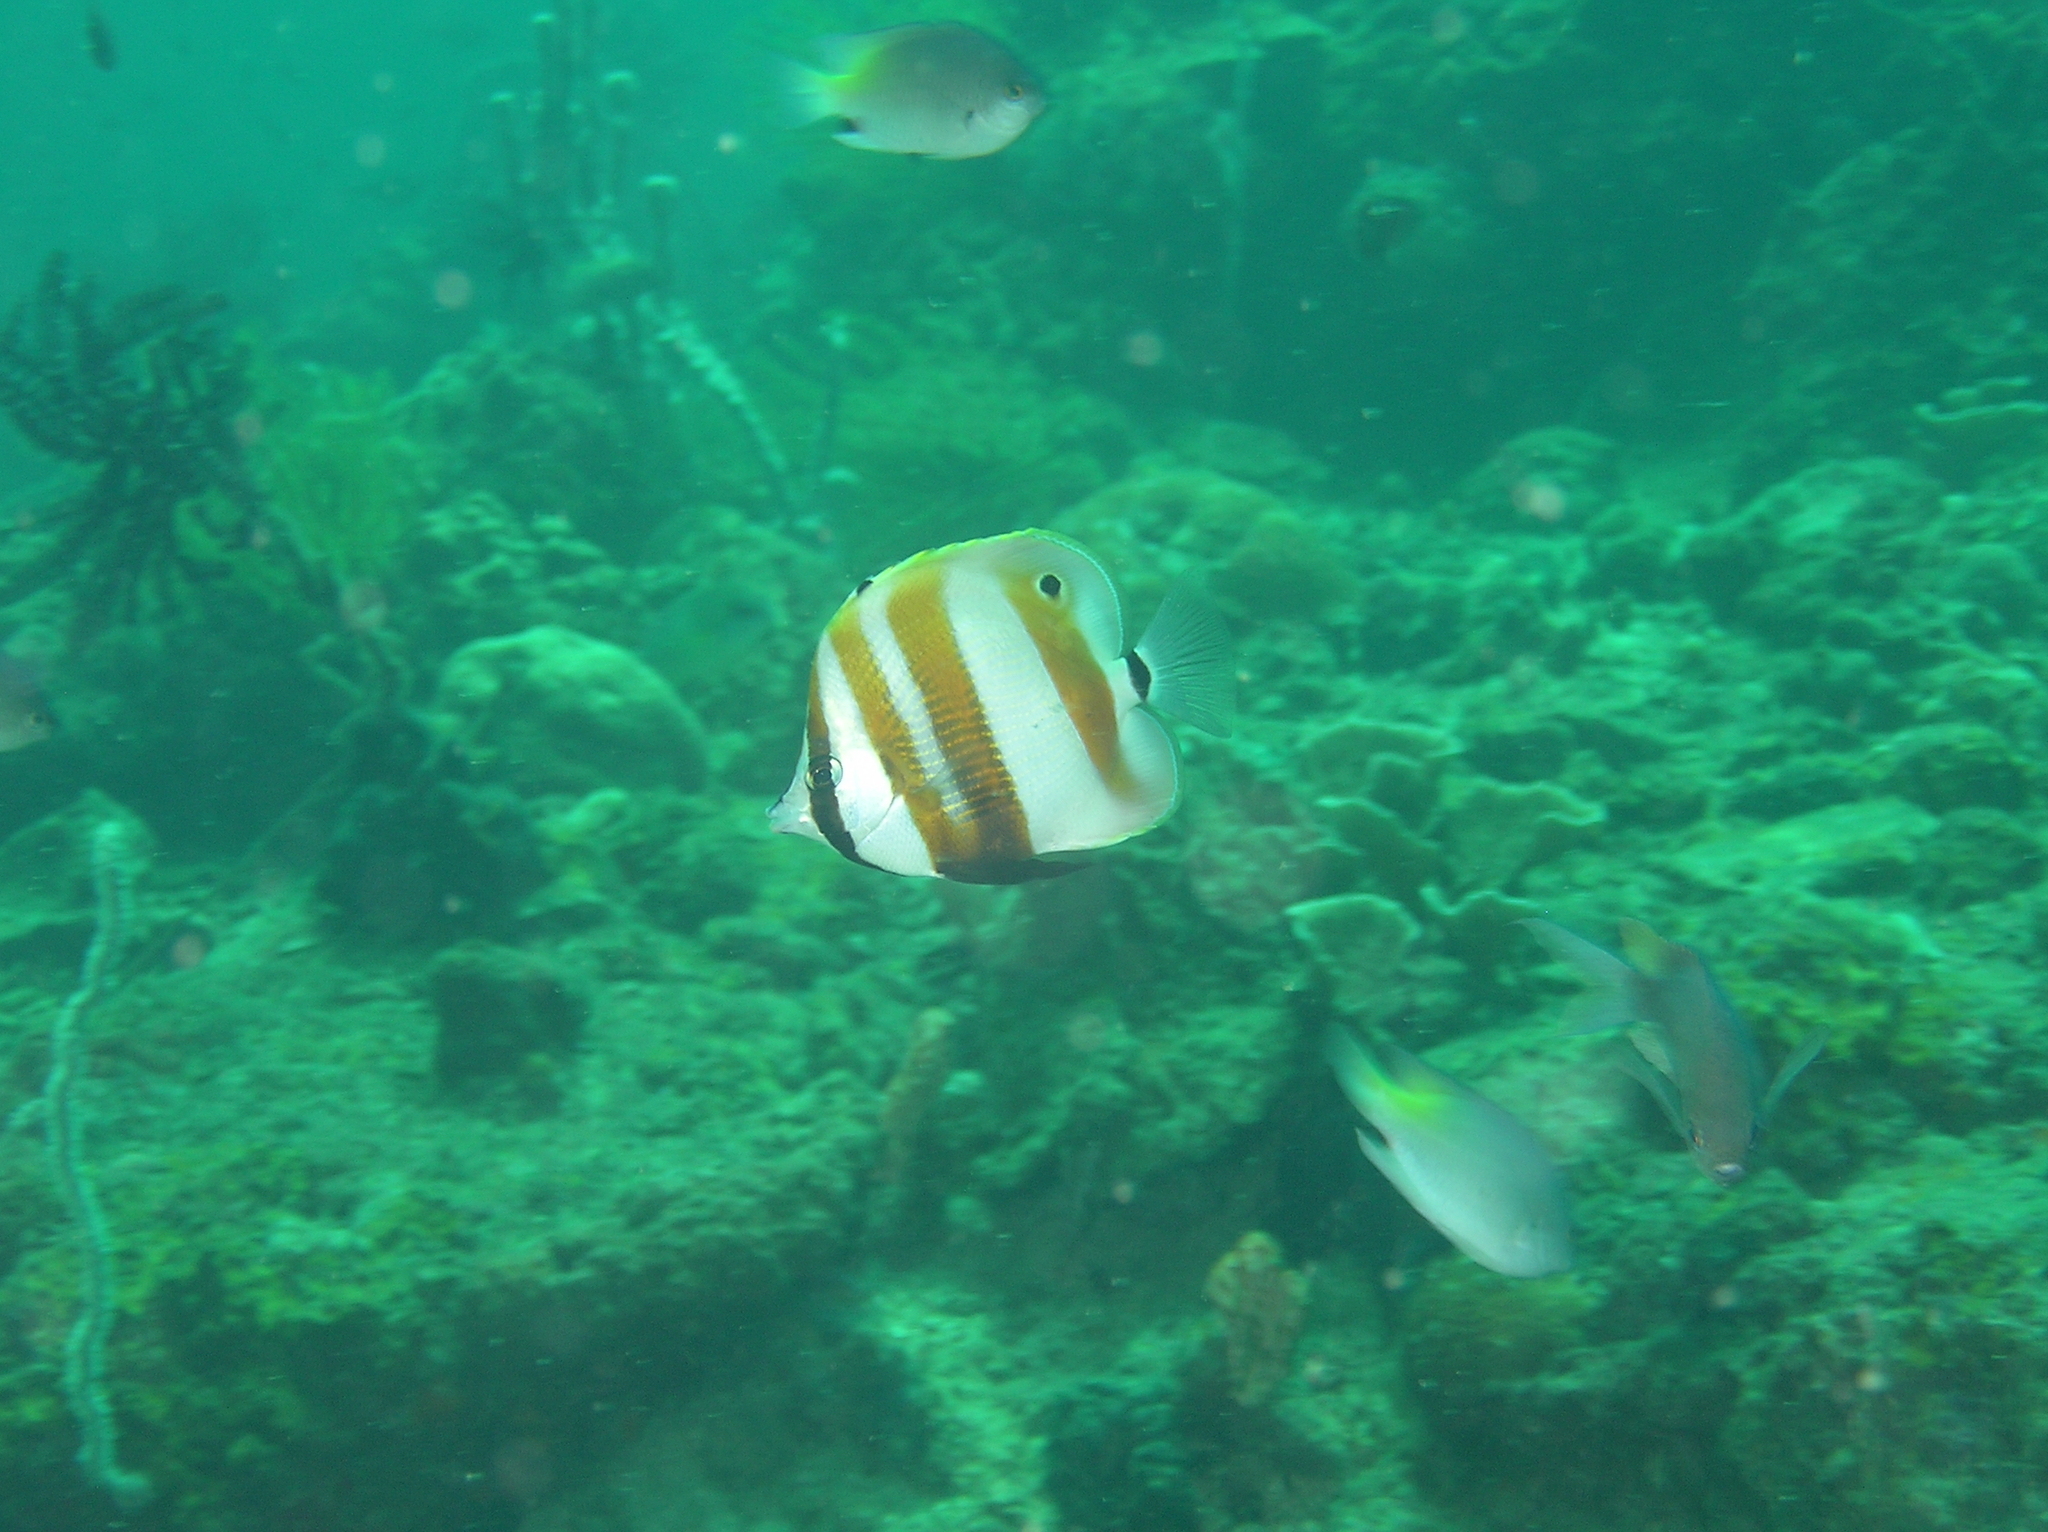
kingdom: Animalia
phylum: Chordata
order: Perciformes
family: Chaetodontidae
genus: Coradion
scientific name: Coradion chrysozonus
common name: Orange-banded coralfish
